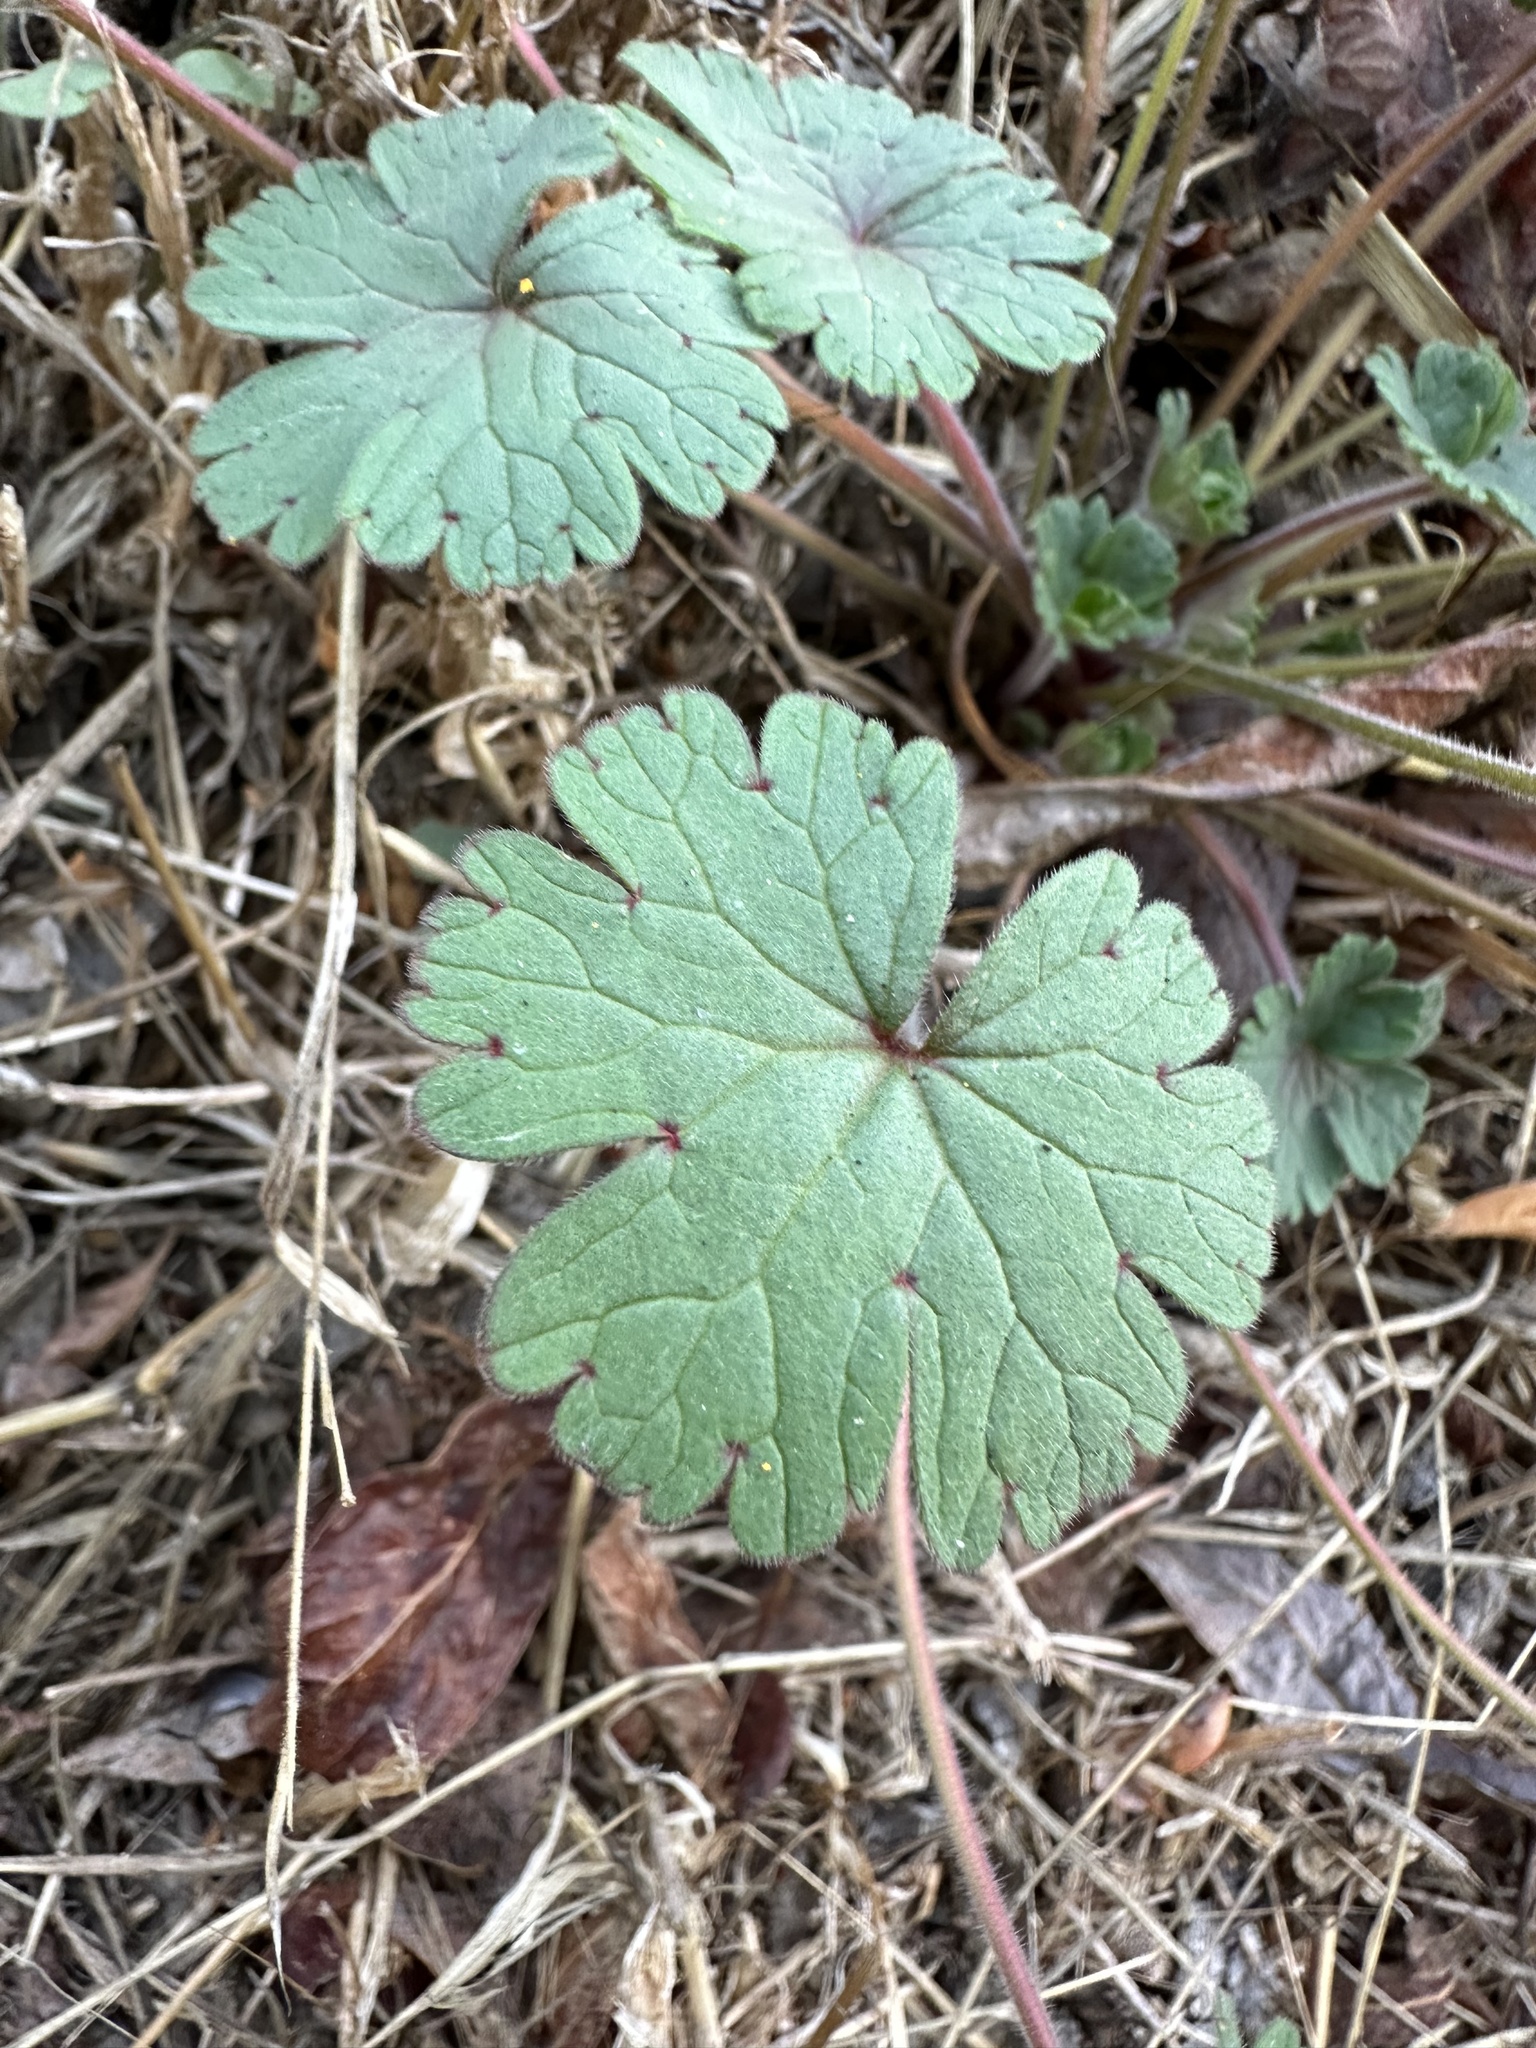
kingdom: Plantae
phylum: Tracheophyta
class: Magnoliopsida
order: Geraniales
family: Geraniaceae
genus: Geranium
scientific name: Geranium
